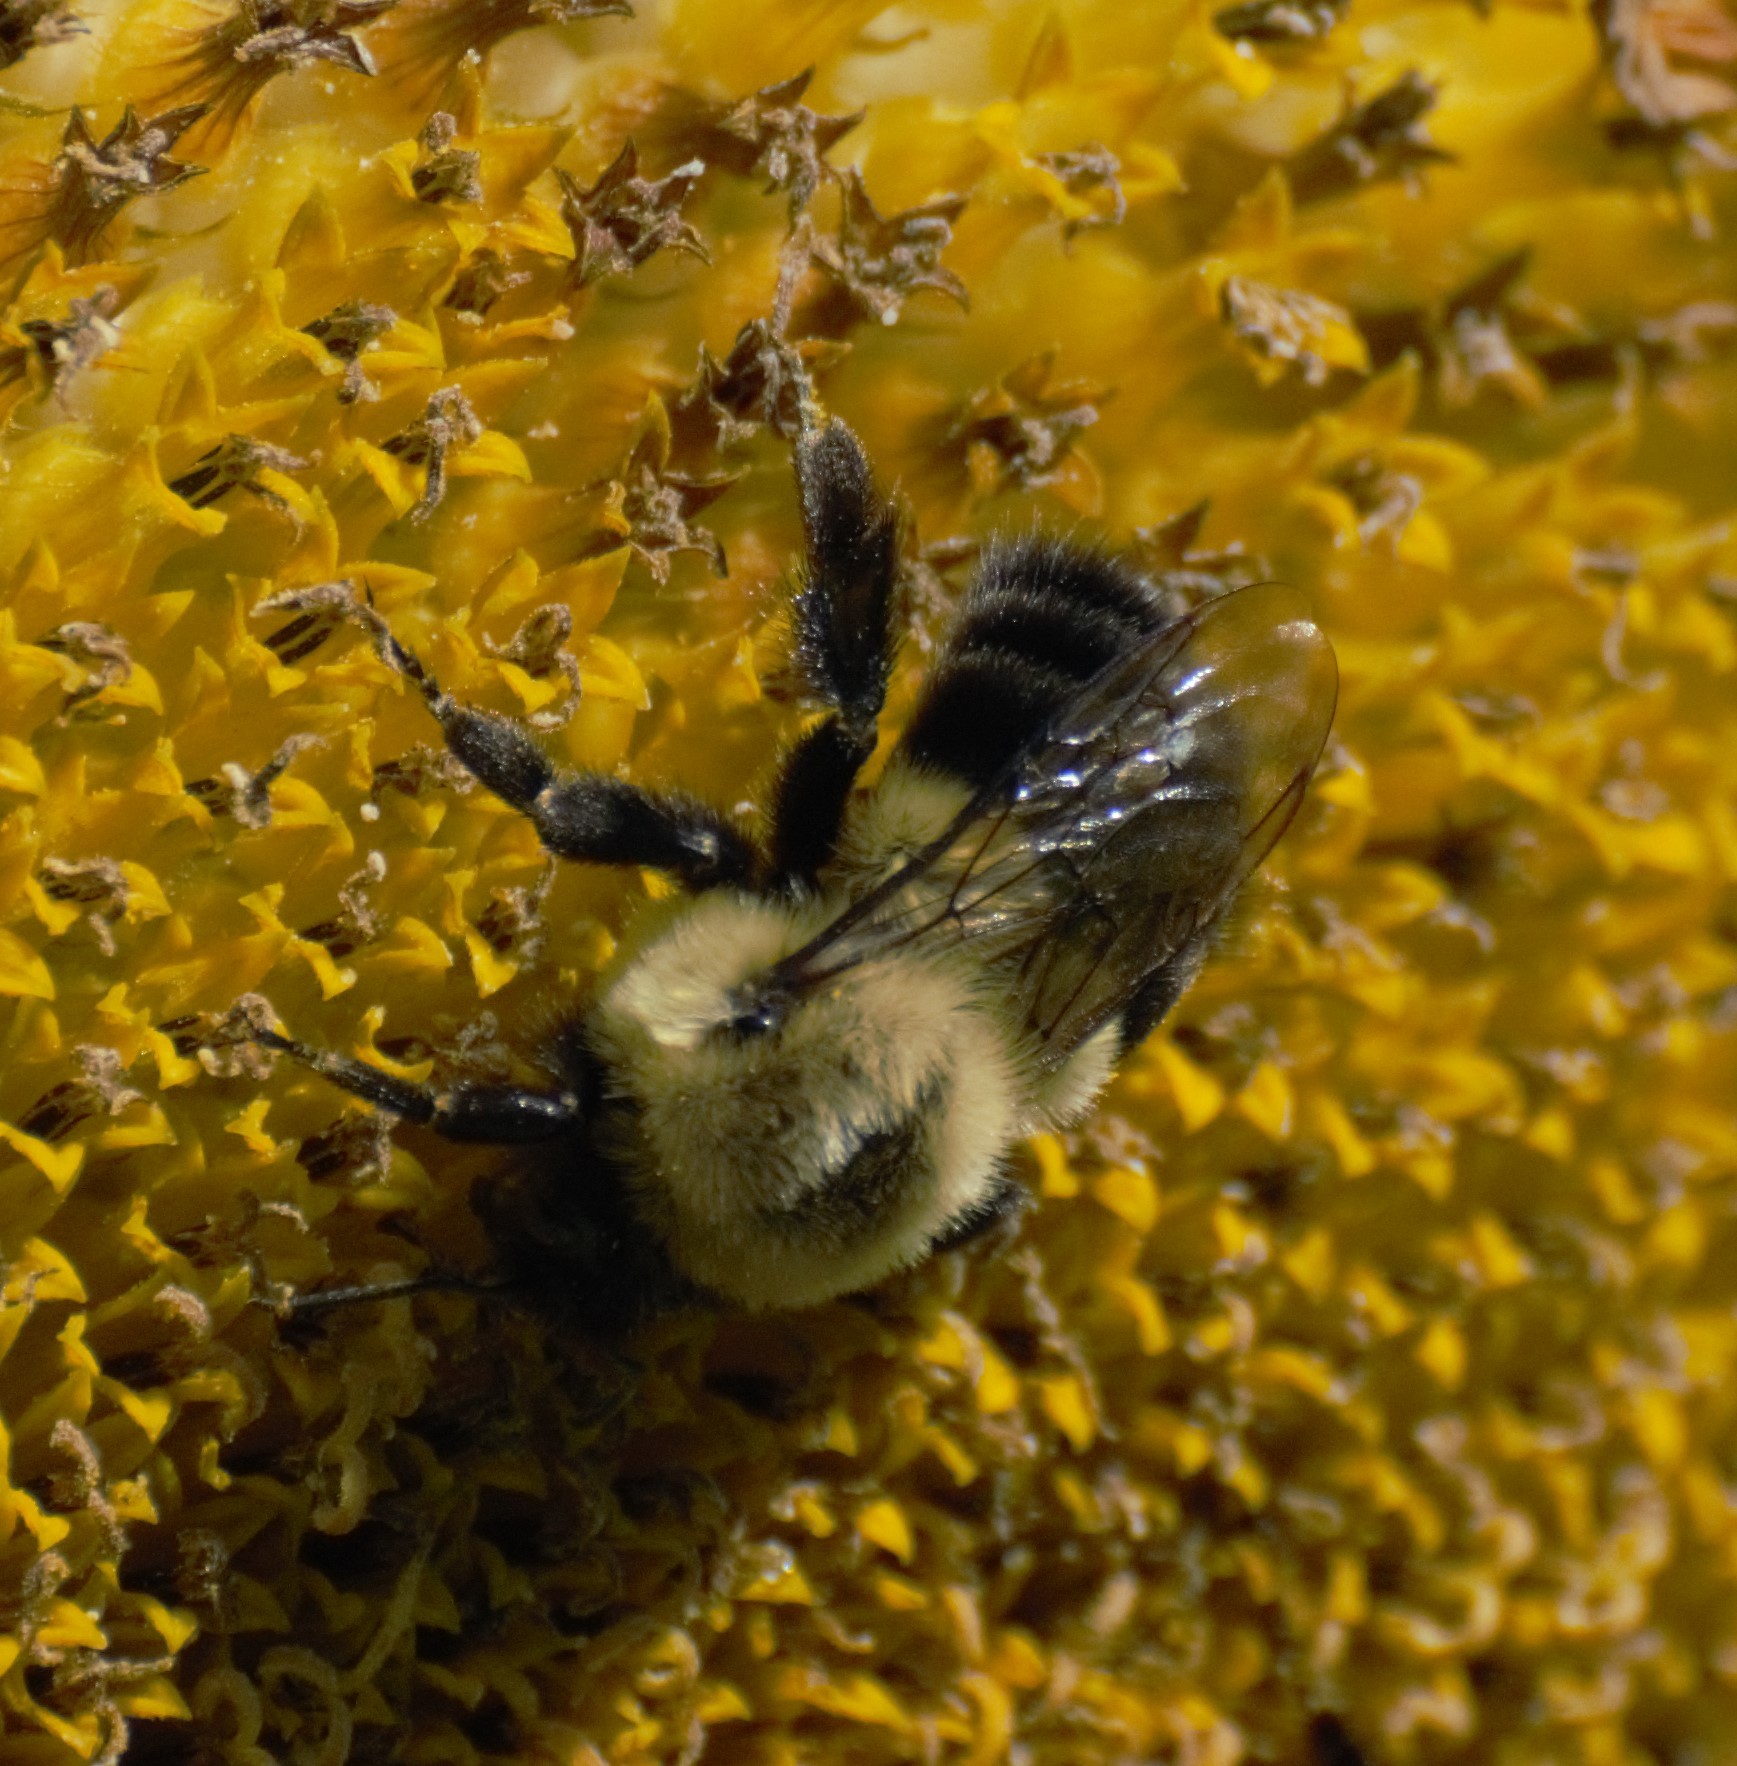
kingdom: Animalia
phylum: Arthropoda
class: Insecta
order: Hymenoptera
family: Apidae
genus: Bombus
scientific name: Bombus impatiens
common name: Common eastern bumble bee
